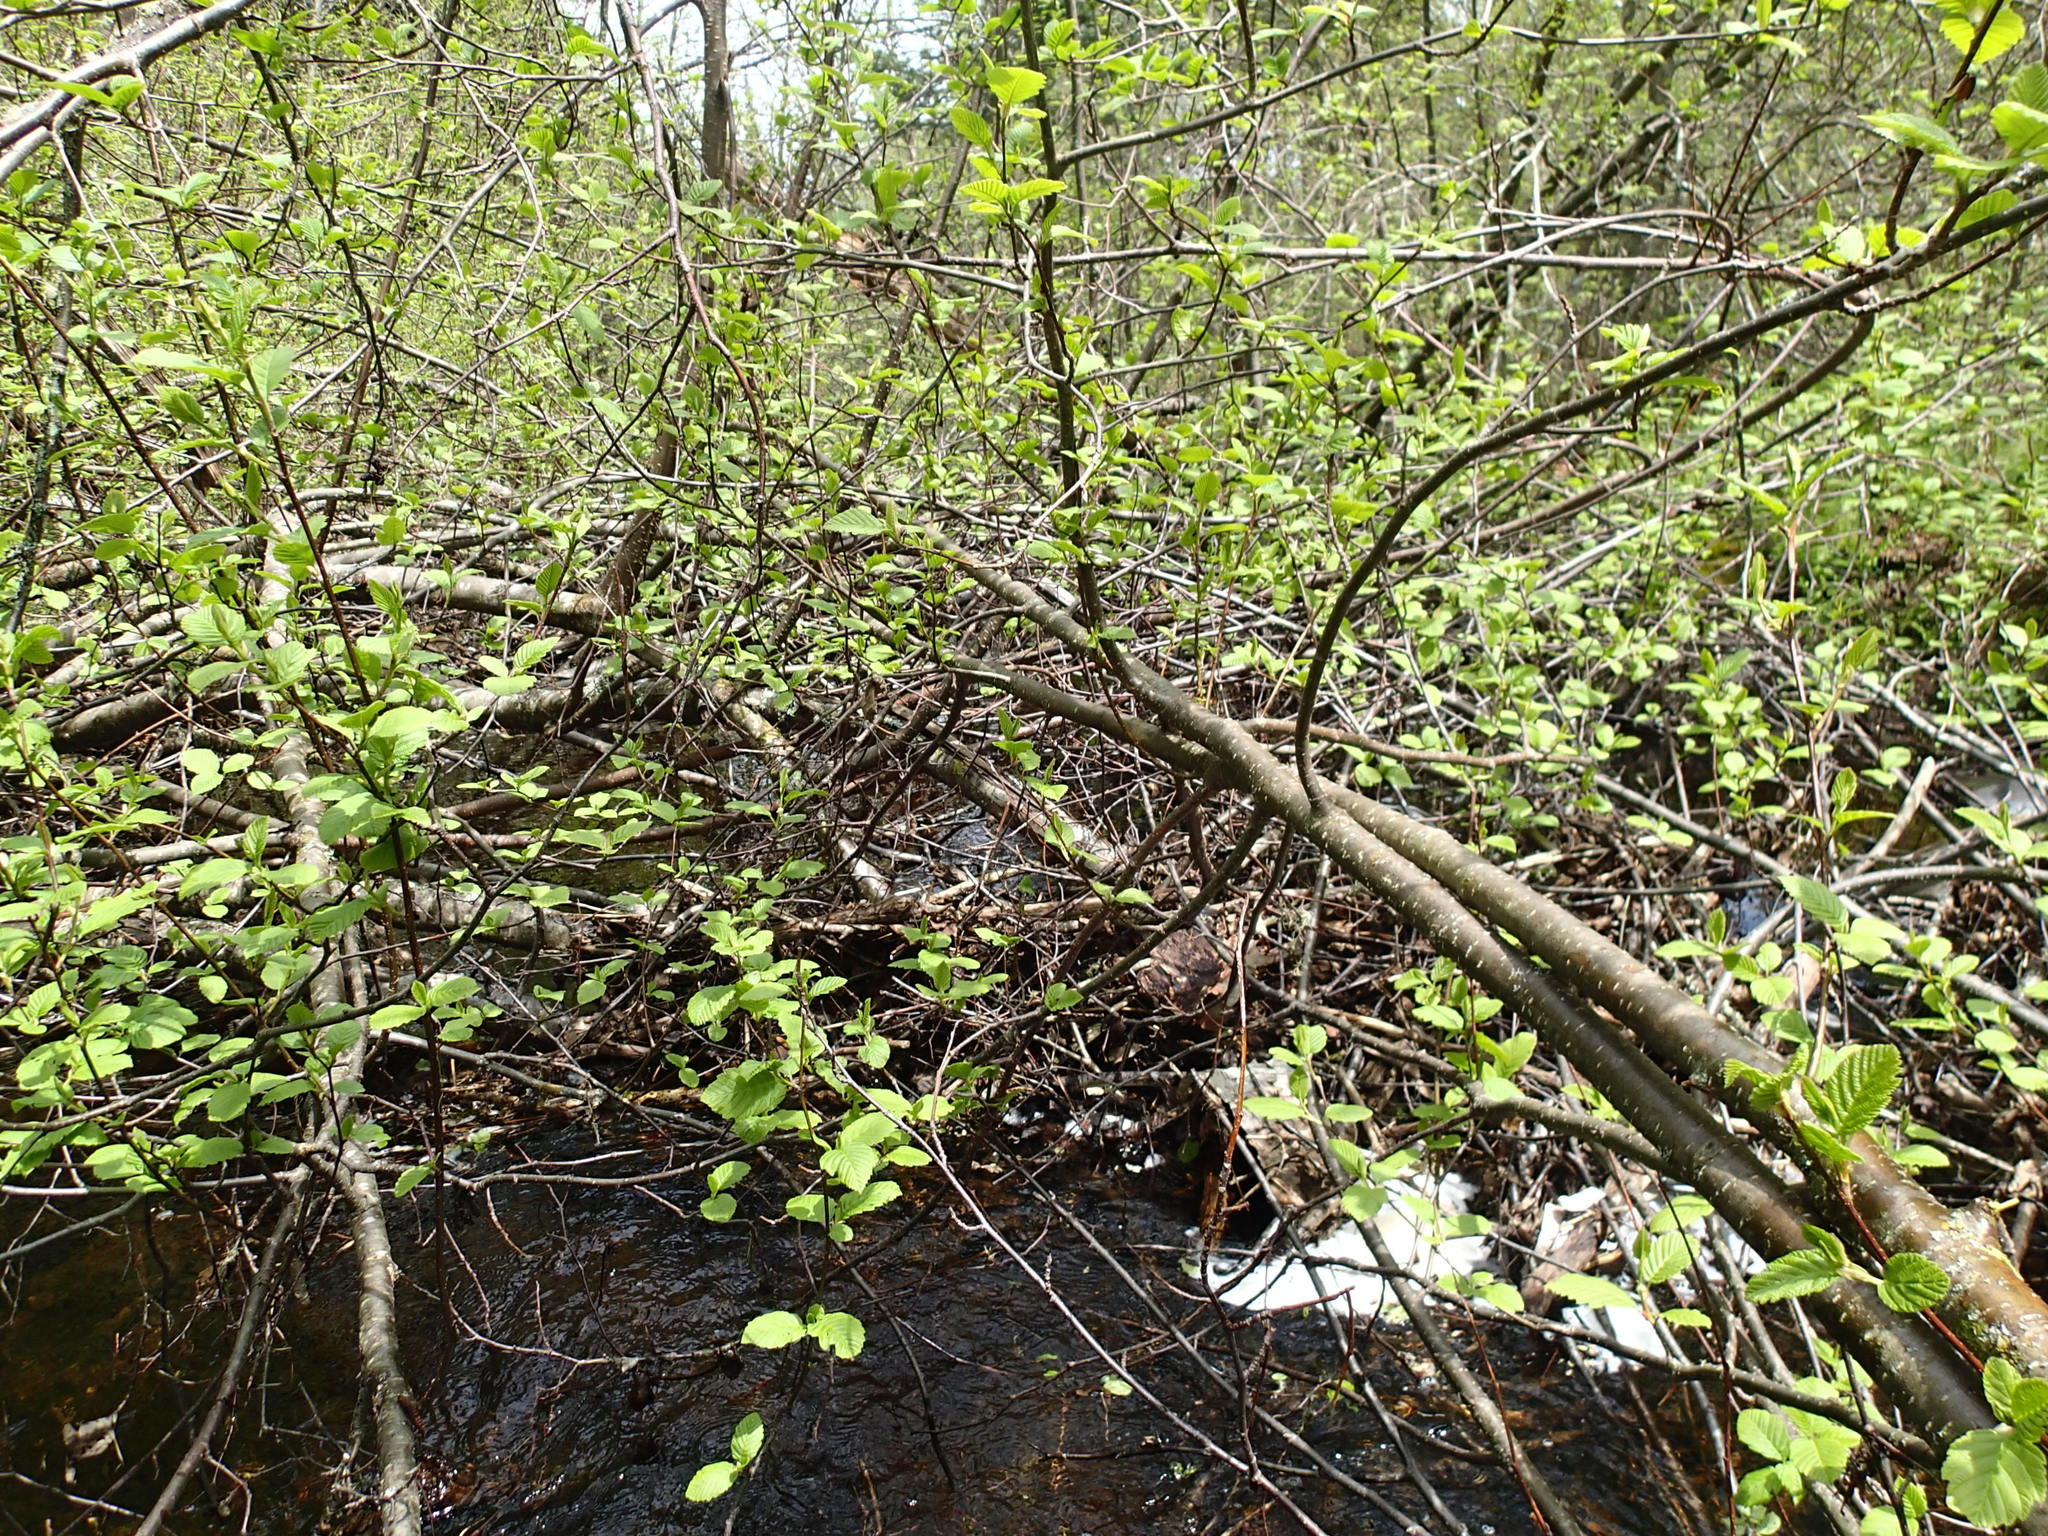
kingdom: Plantae
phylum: Tracheophyta
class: Magnoliopsida
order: Fagales
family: Betulaceae
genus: Alnus
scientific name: Alnus incana
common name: Grey alder
